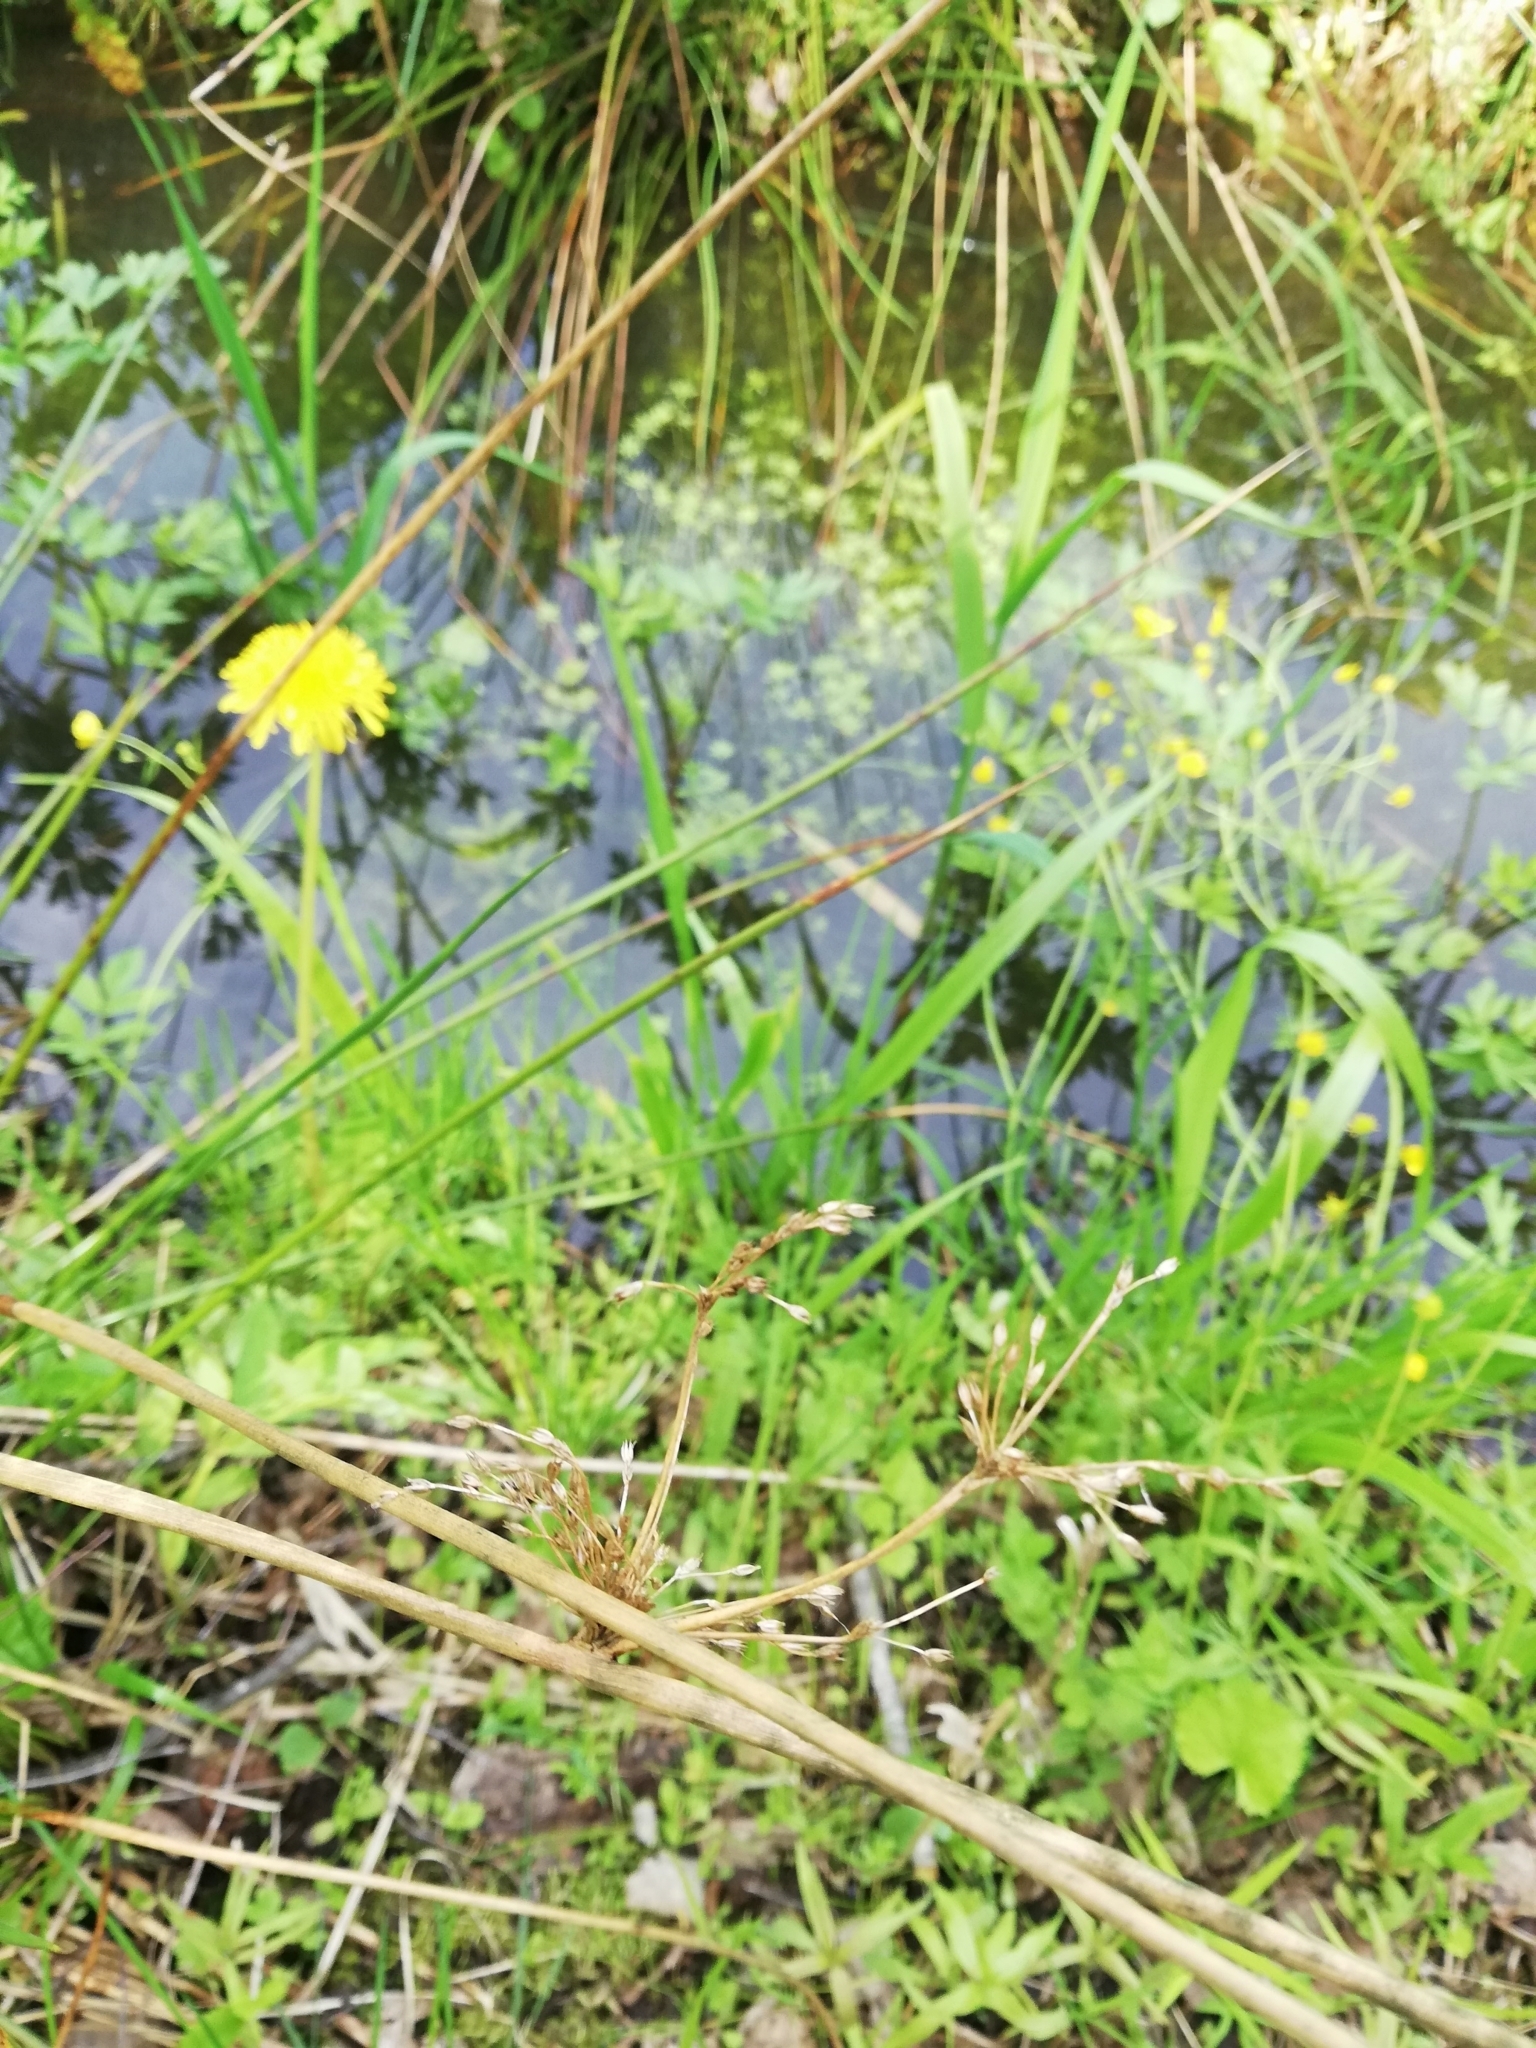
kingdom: Plantae
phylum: Tracheophyta
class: Liliopsida
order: Poales
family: Juncaceae
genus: Juncus
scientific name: Juncus effusus
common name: Soft rush
